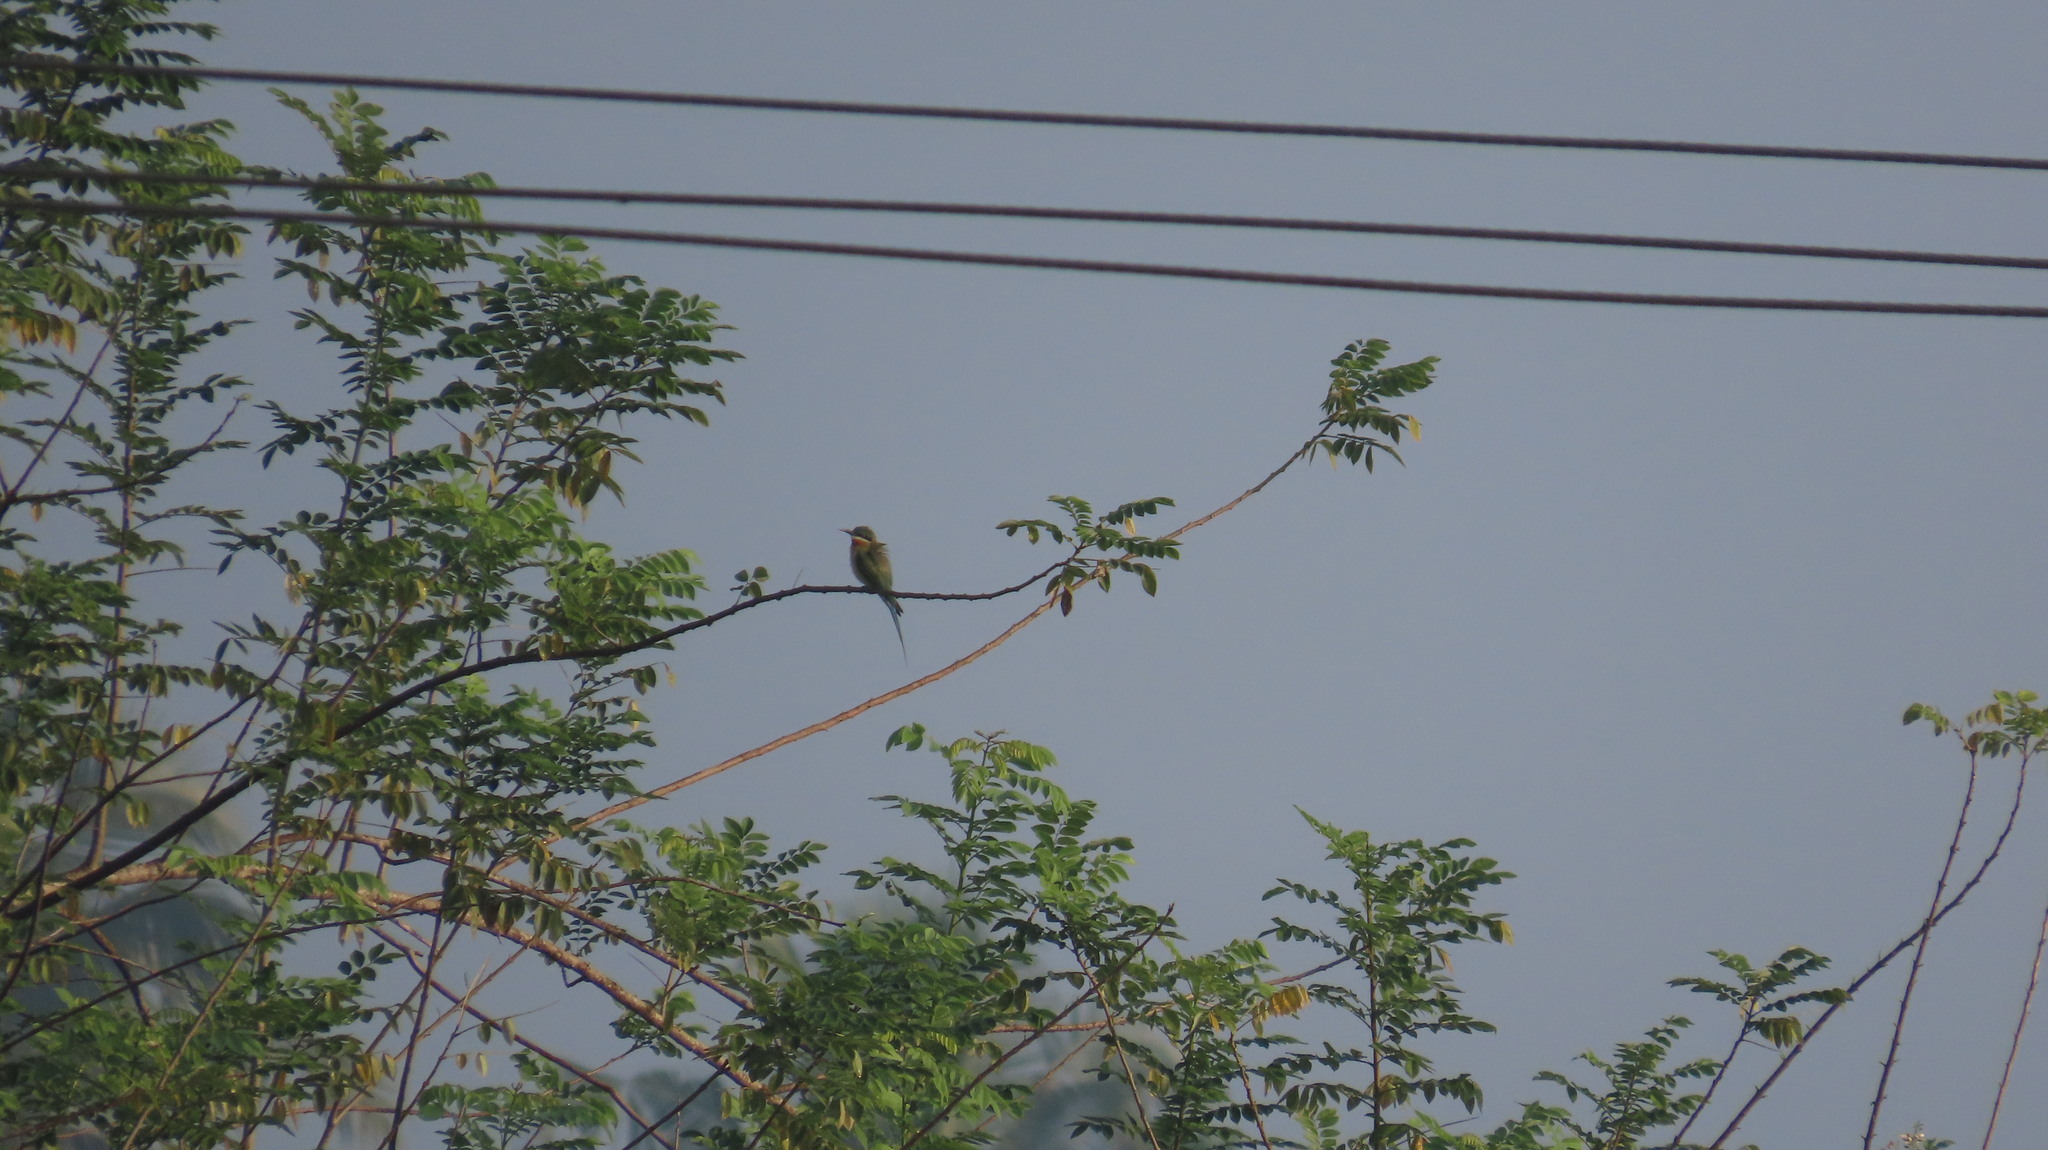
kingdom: Animalia
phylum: Chordata
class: Aves
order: Coraciiformes
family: Meropidae
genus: Merops
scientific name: Merops philippinus
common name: Blue-tailed bee-eater
